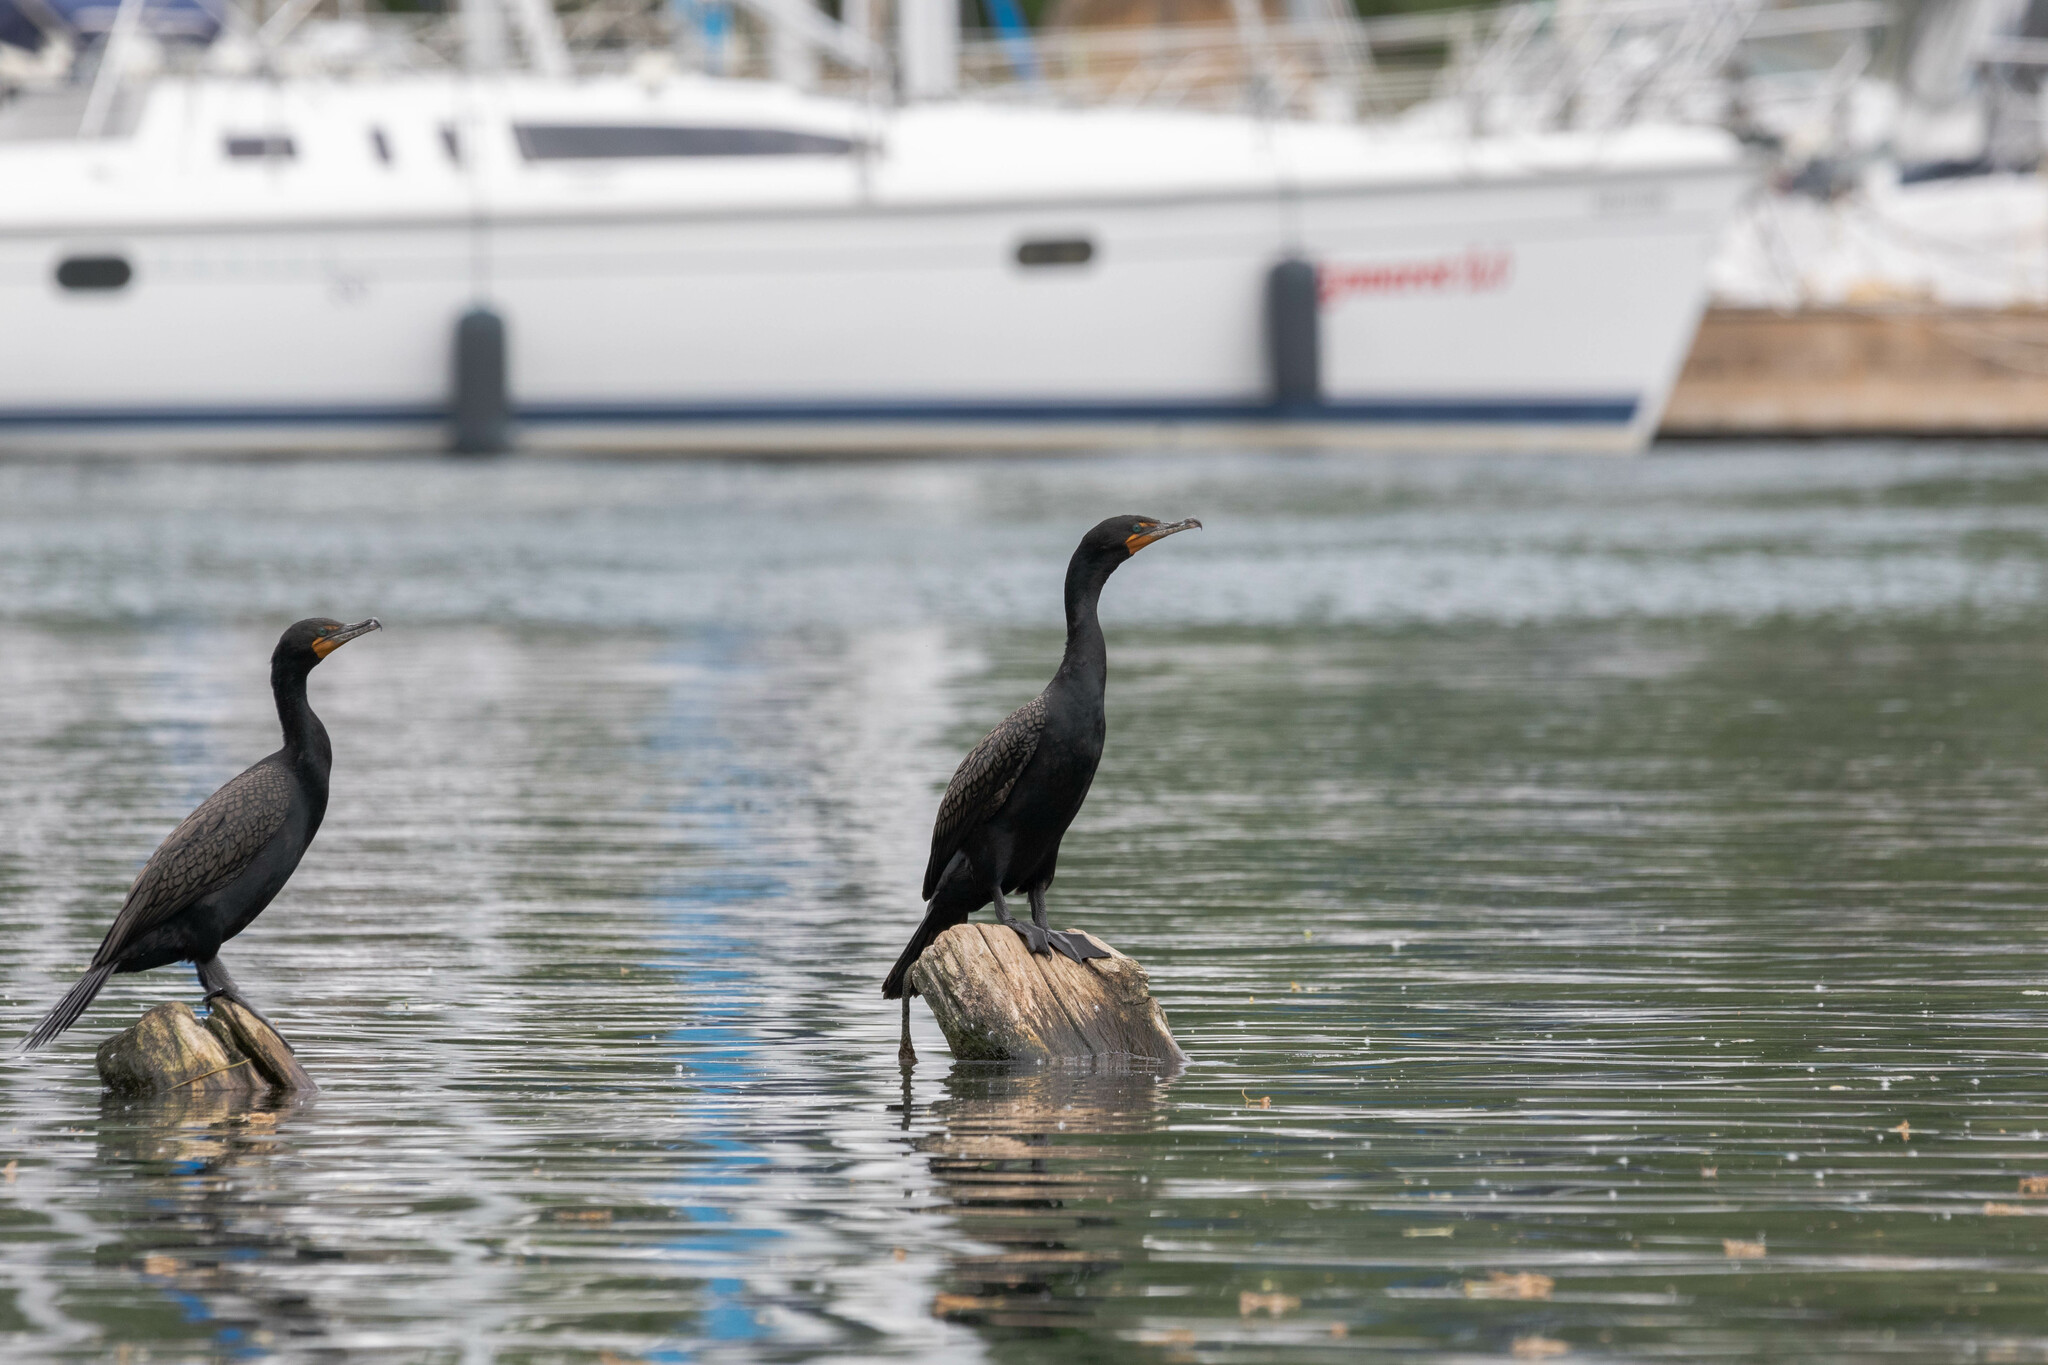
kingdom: Animalia
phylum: Chordata
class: Aves
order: Suliformes
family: Phalacrocoracidae
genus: Phalacrocorax
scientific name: Phalacrocorax auritus
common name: Double-crested cormorant
